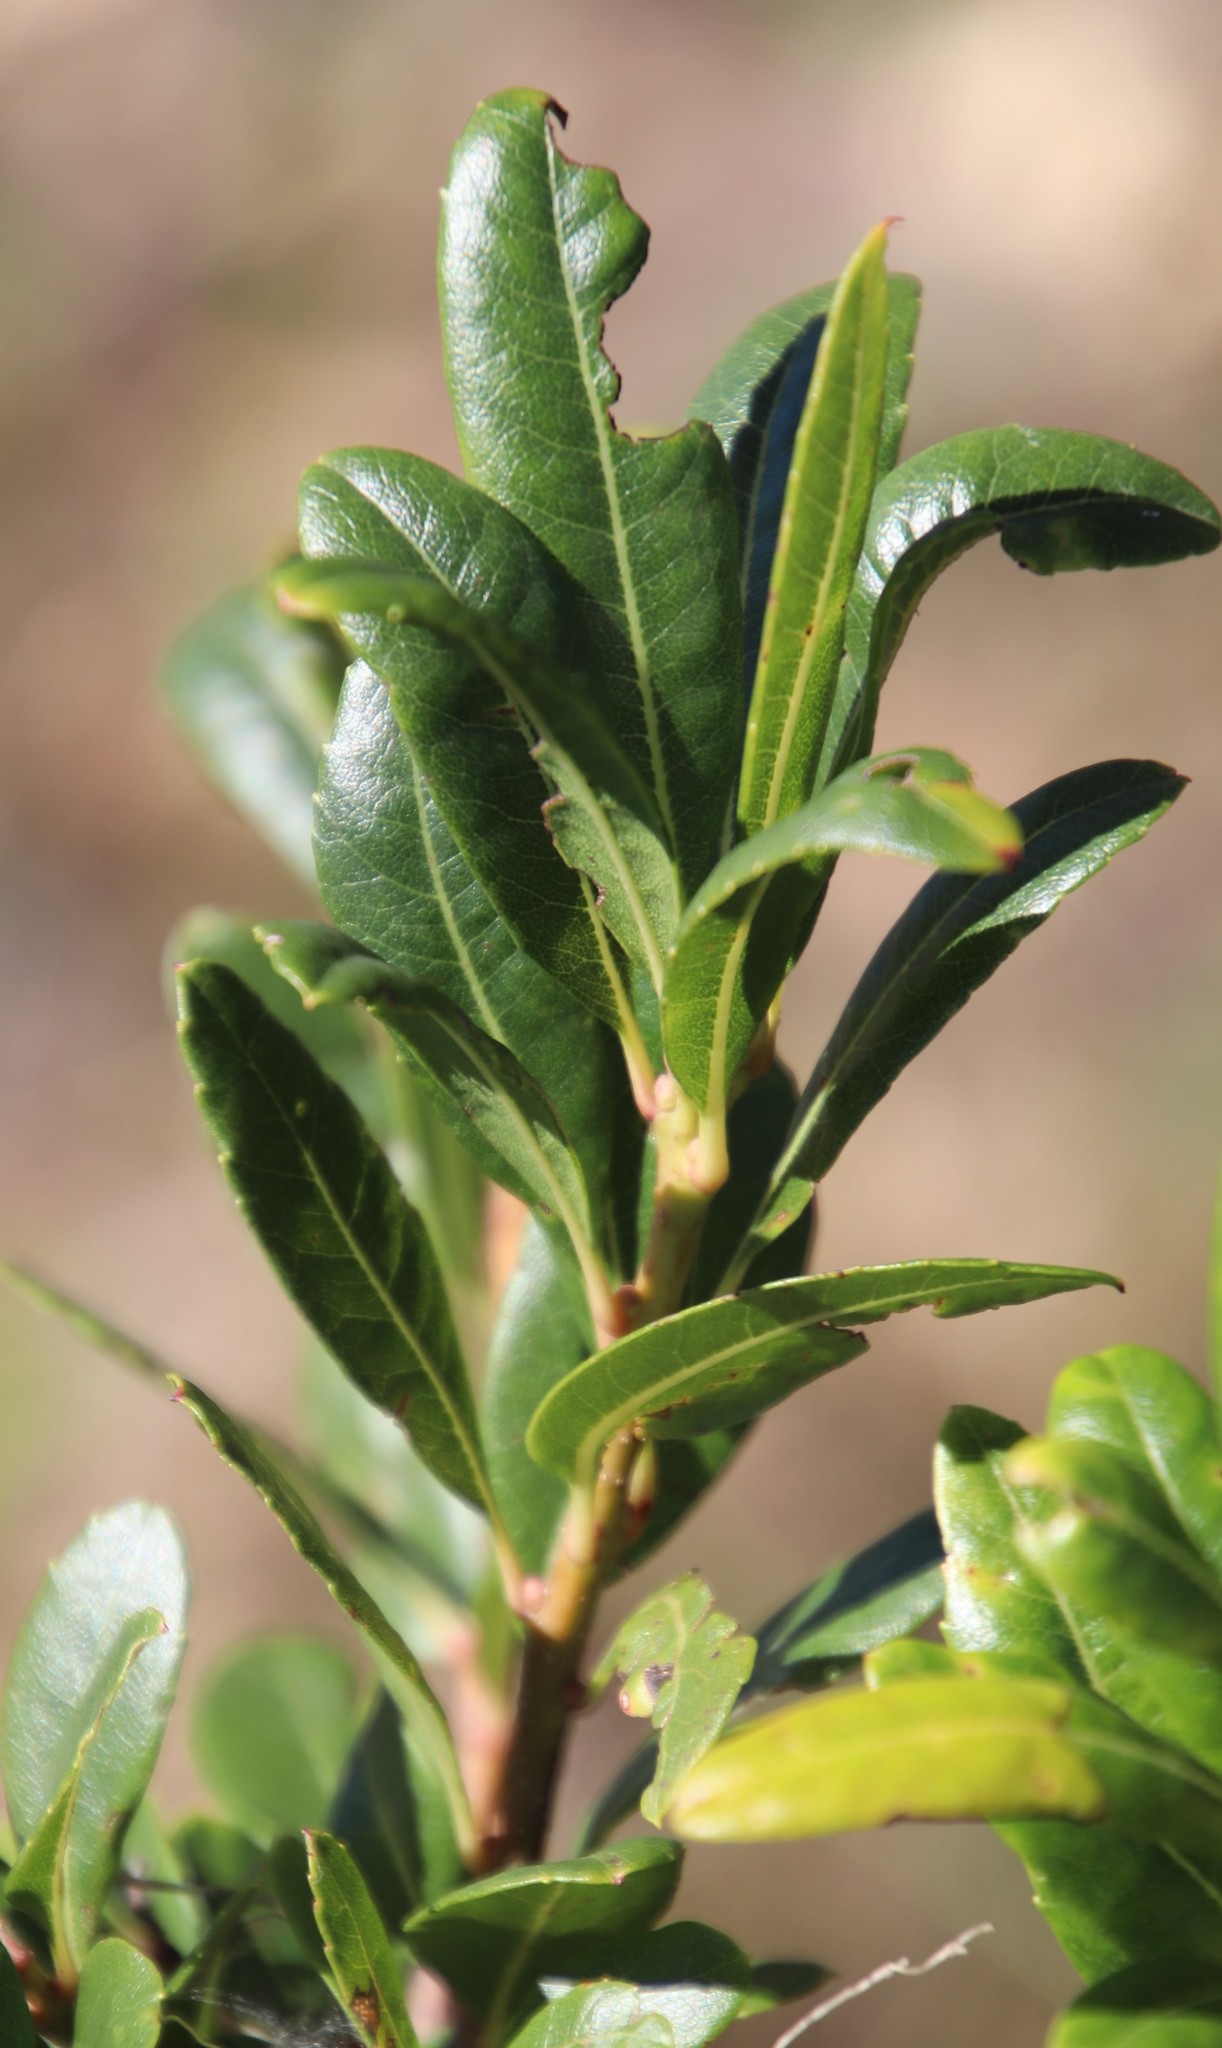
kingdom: Plantae
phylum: Tracheophyta
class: Magnoliopsida
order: Fagales
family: Myricaceae
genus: Morella
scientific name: Morella pilulifera
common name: Broad-leaved waxberry
